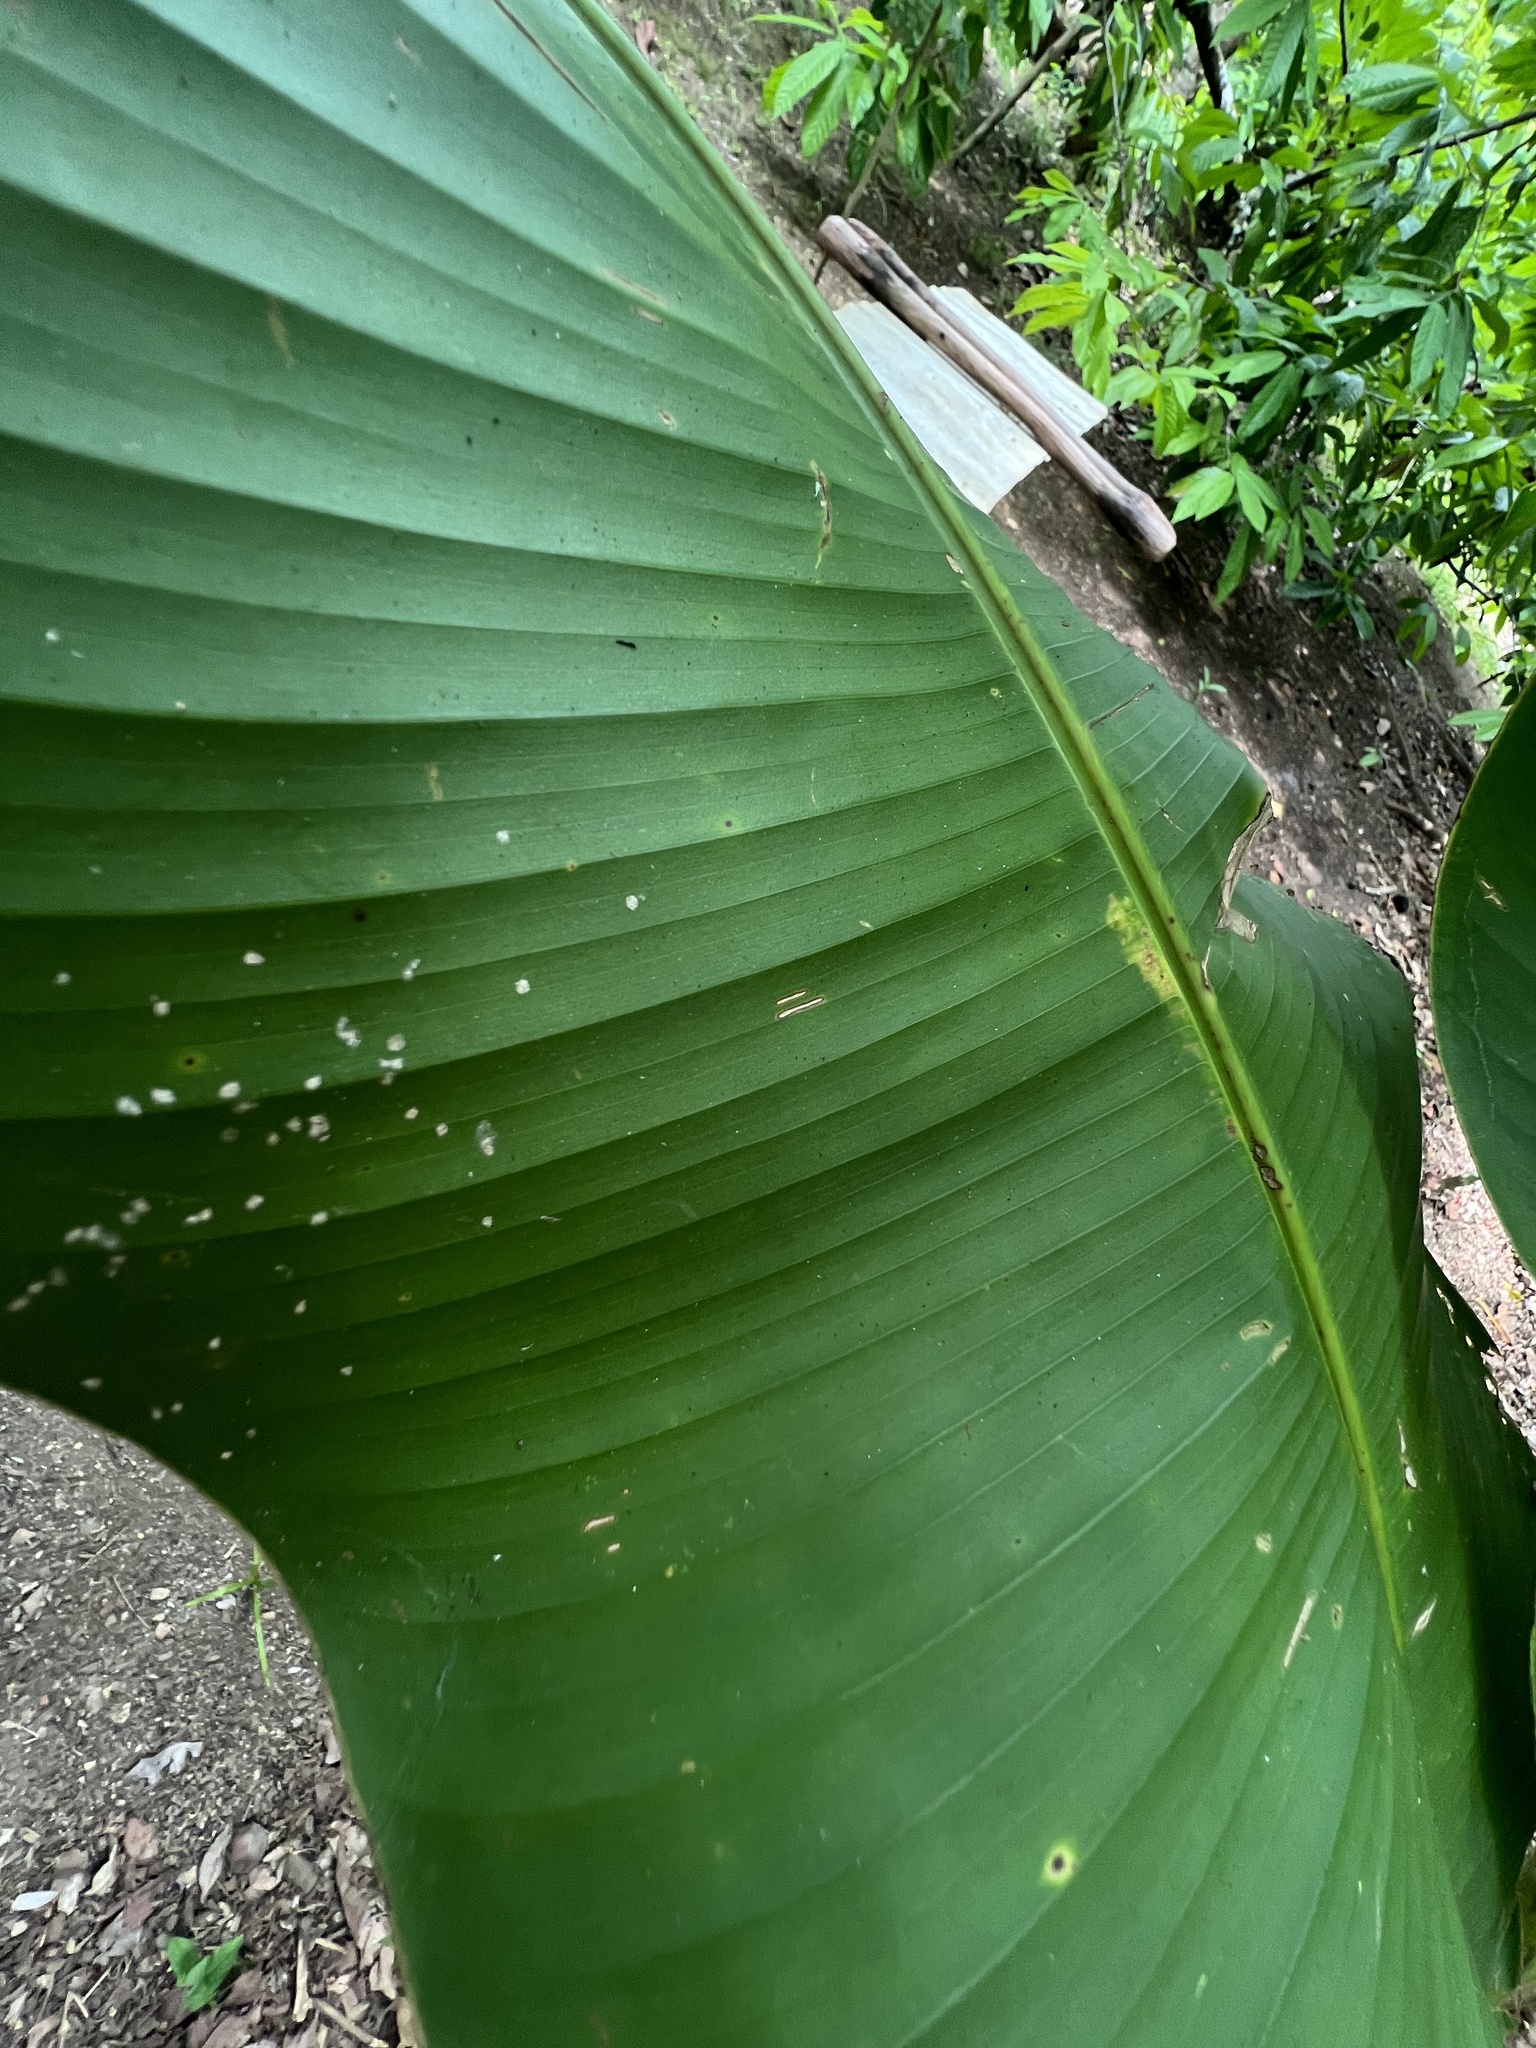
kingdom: Plantae
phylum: Tracheophyta
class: Liliopsida
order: Zingiberales
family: Heliconiaceae
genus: Heliconia
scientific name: Heliconia wagneriana
